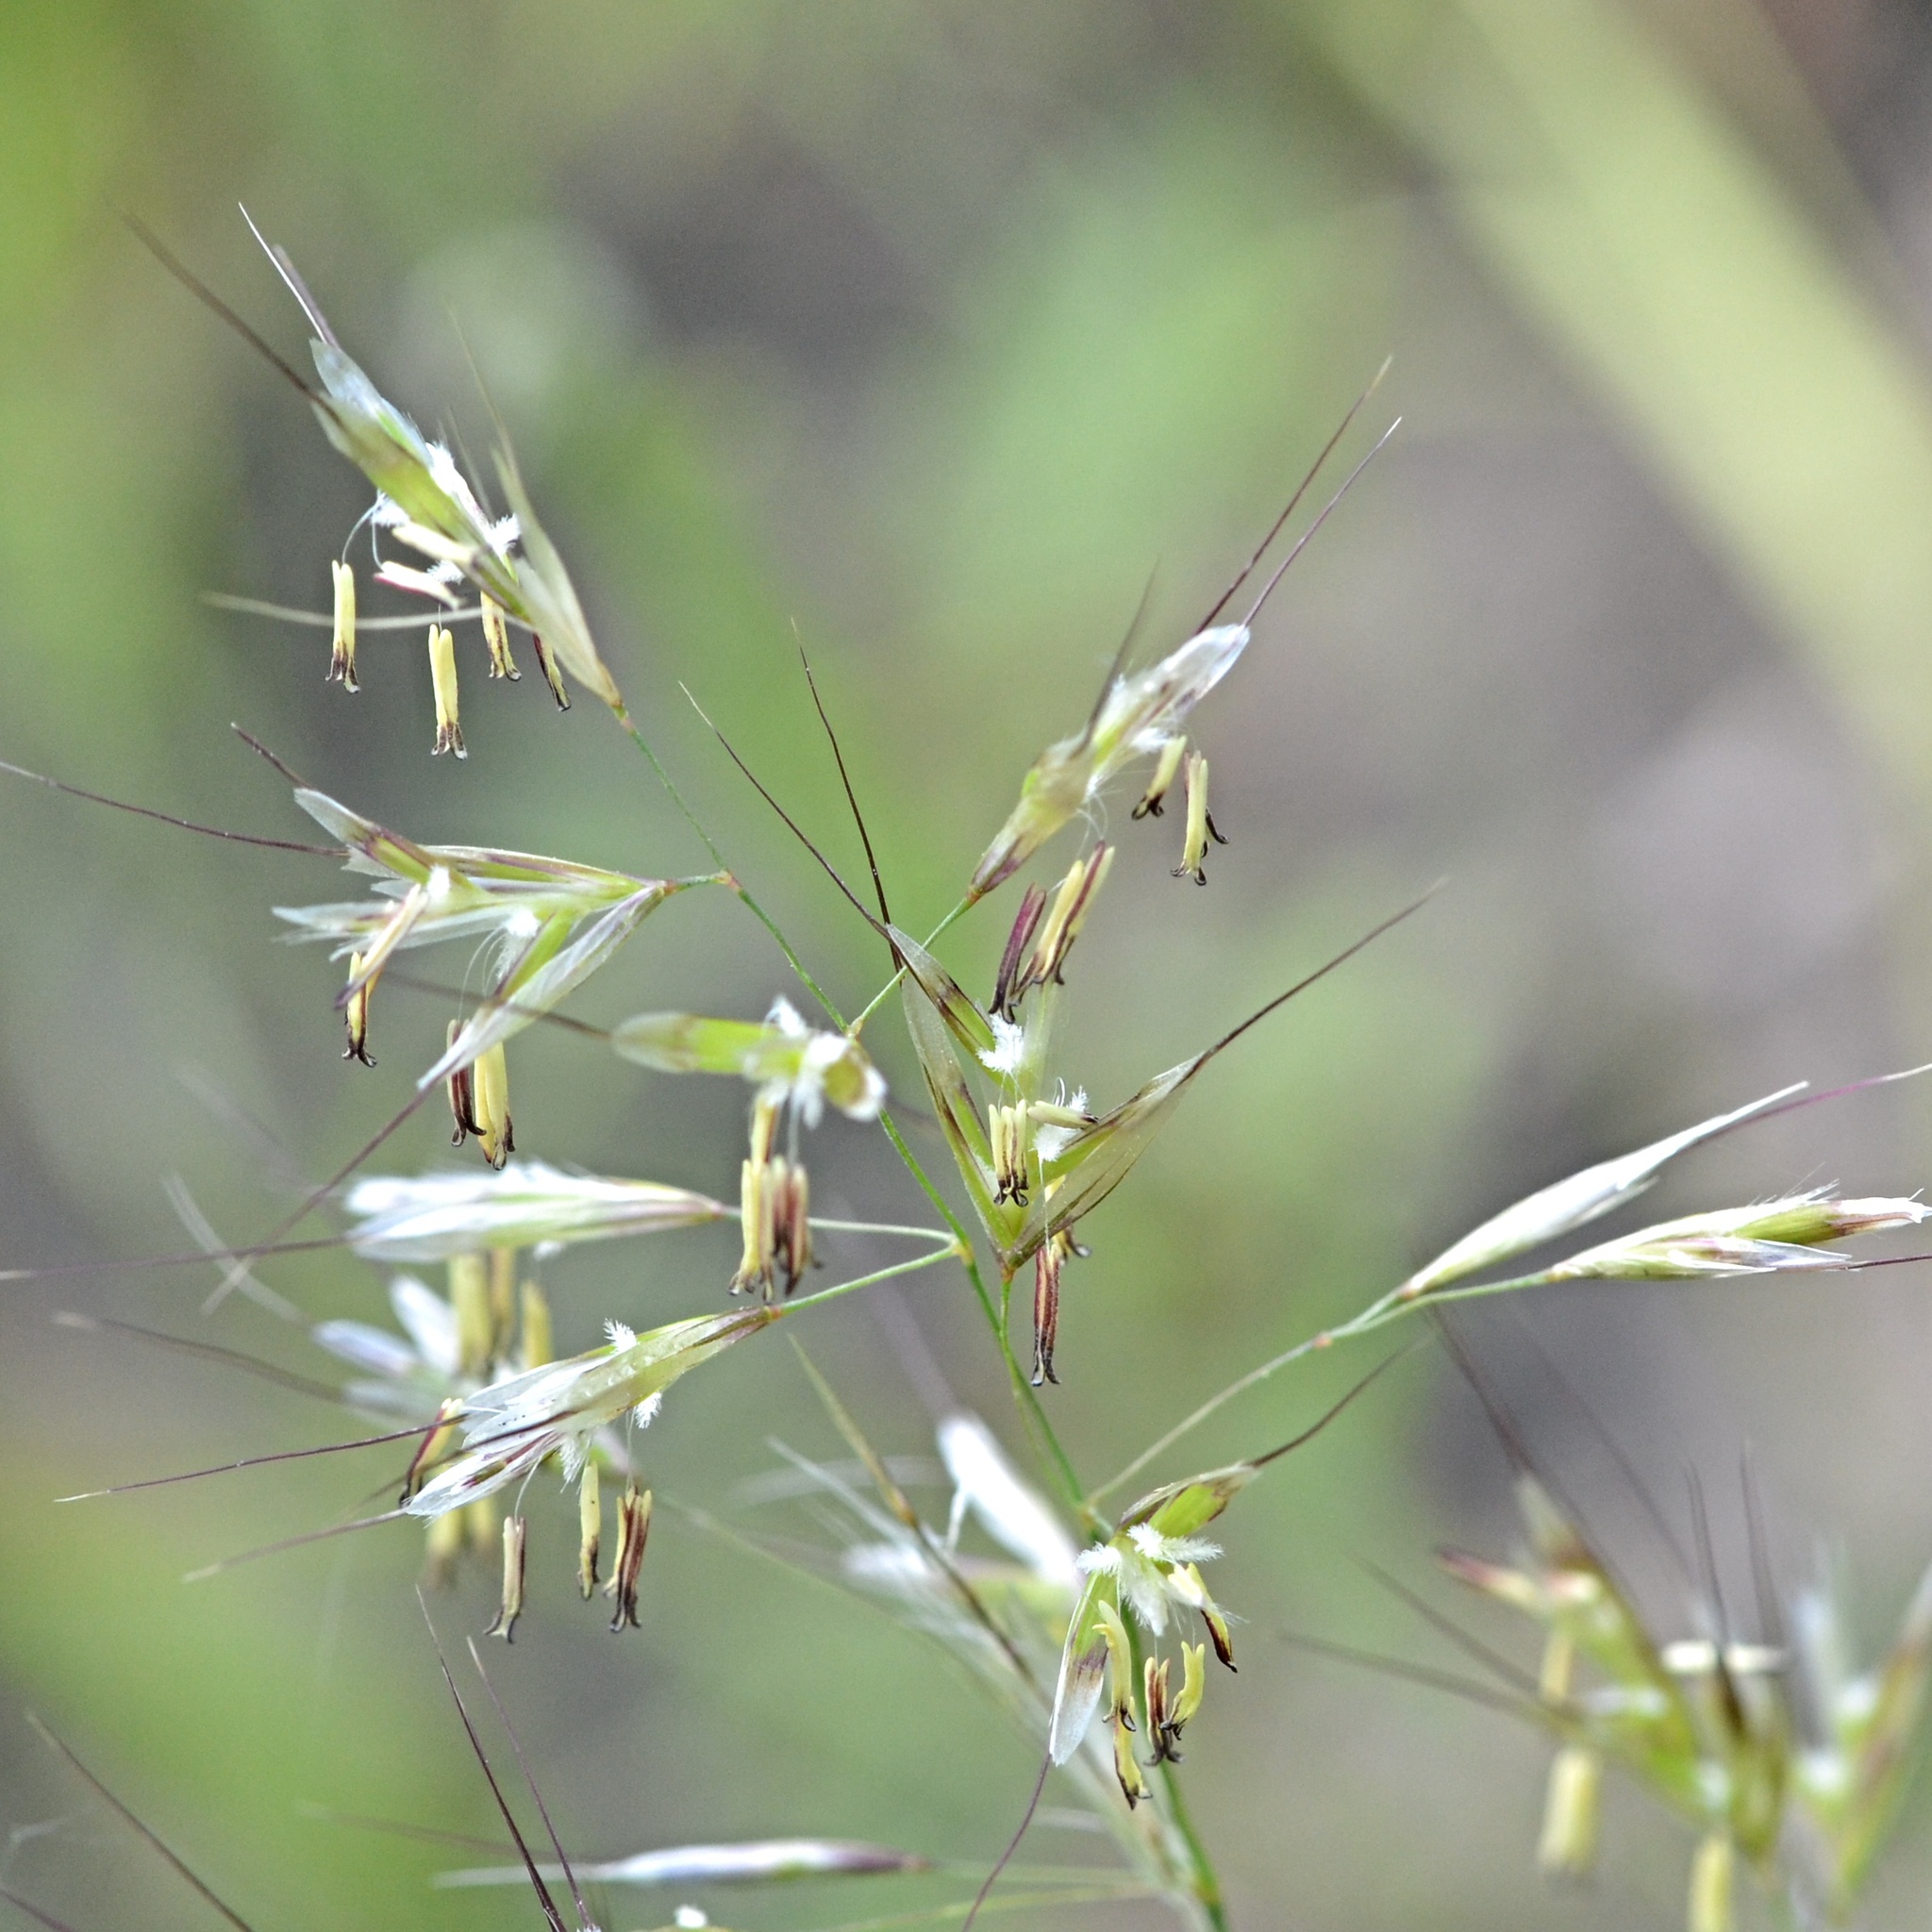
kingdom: Plantae
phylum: Tracheophyta
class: Liliopsida
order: Poales
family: Poaceae
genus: Avenula
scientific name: Avenula pubescens
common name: Downy alpine oatgrass
